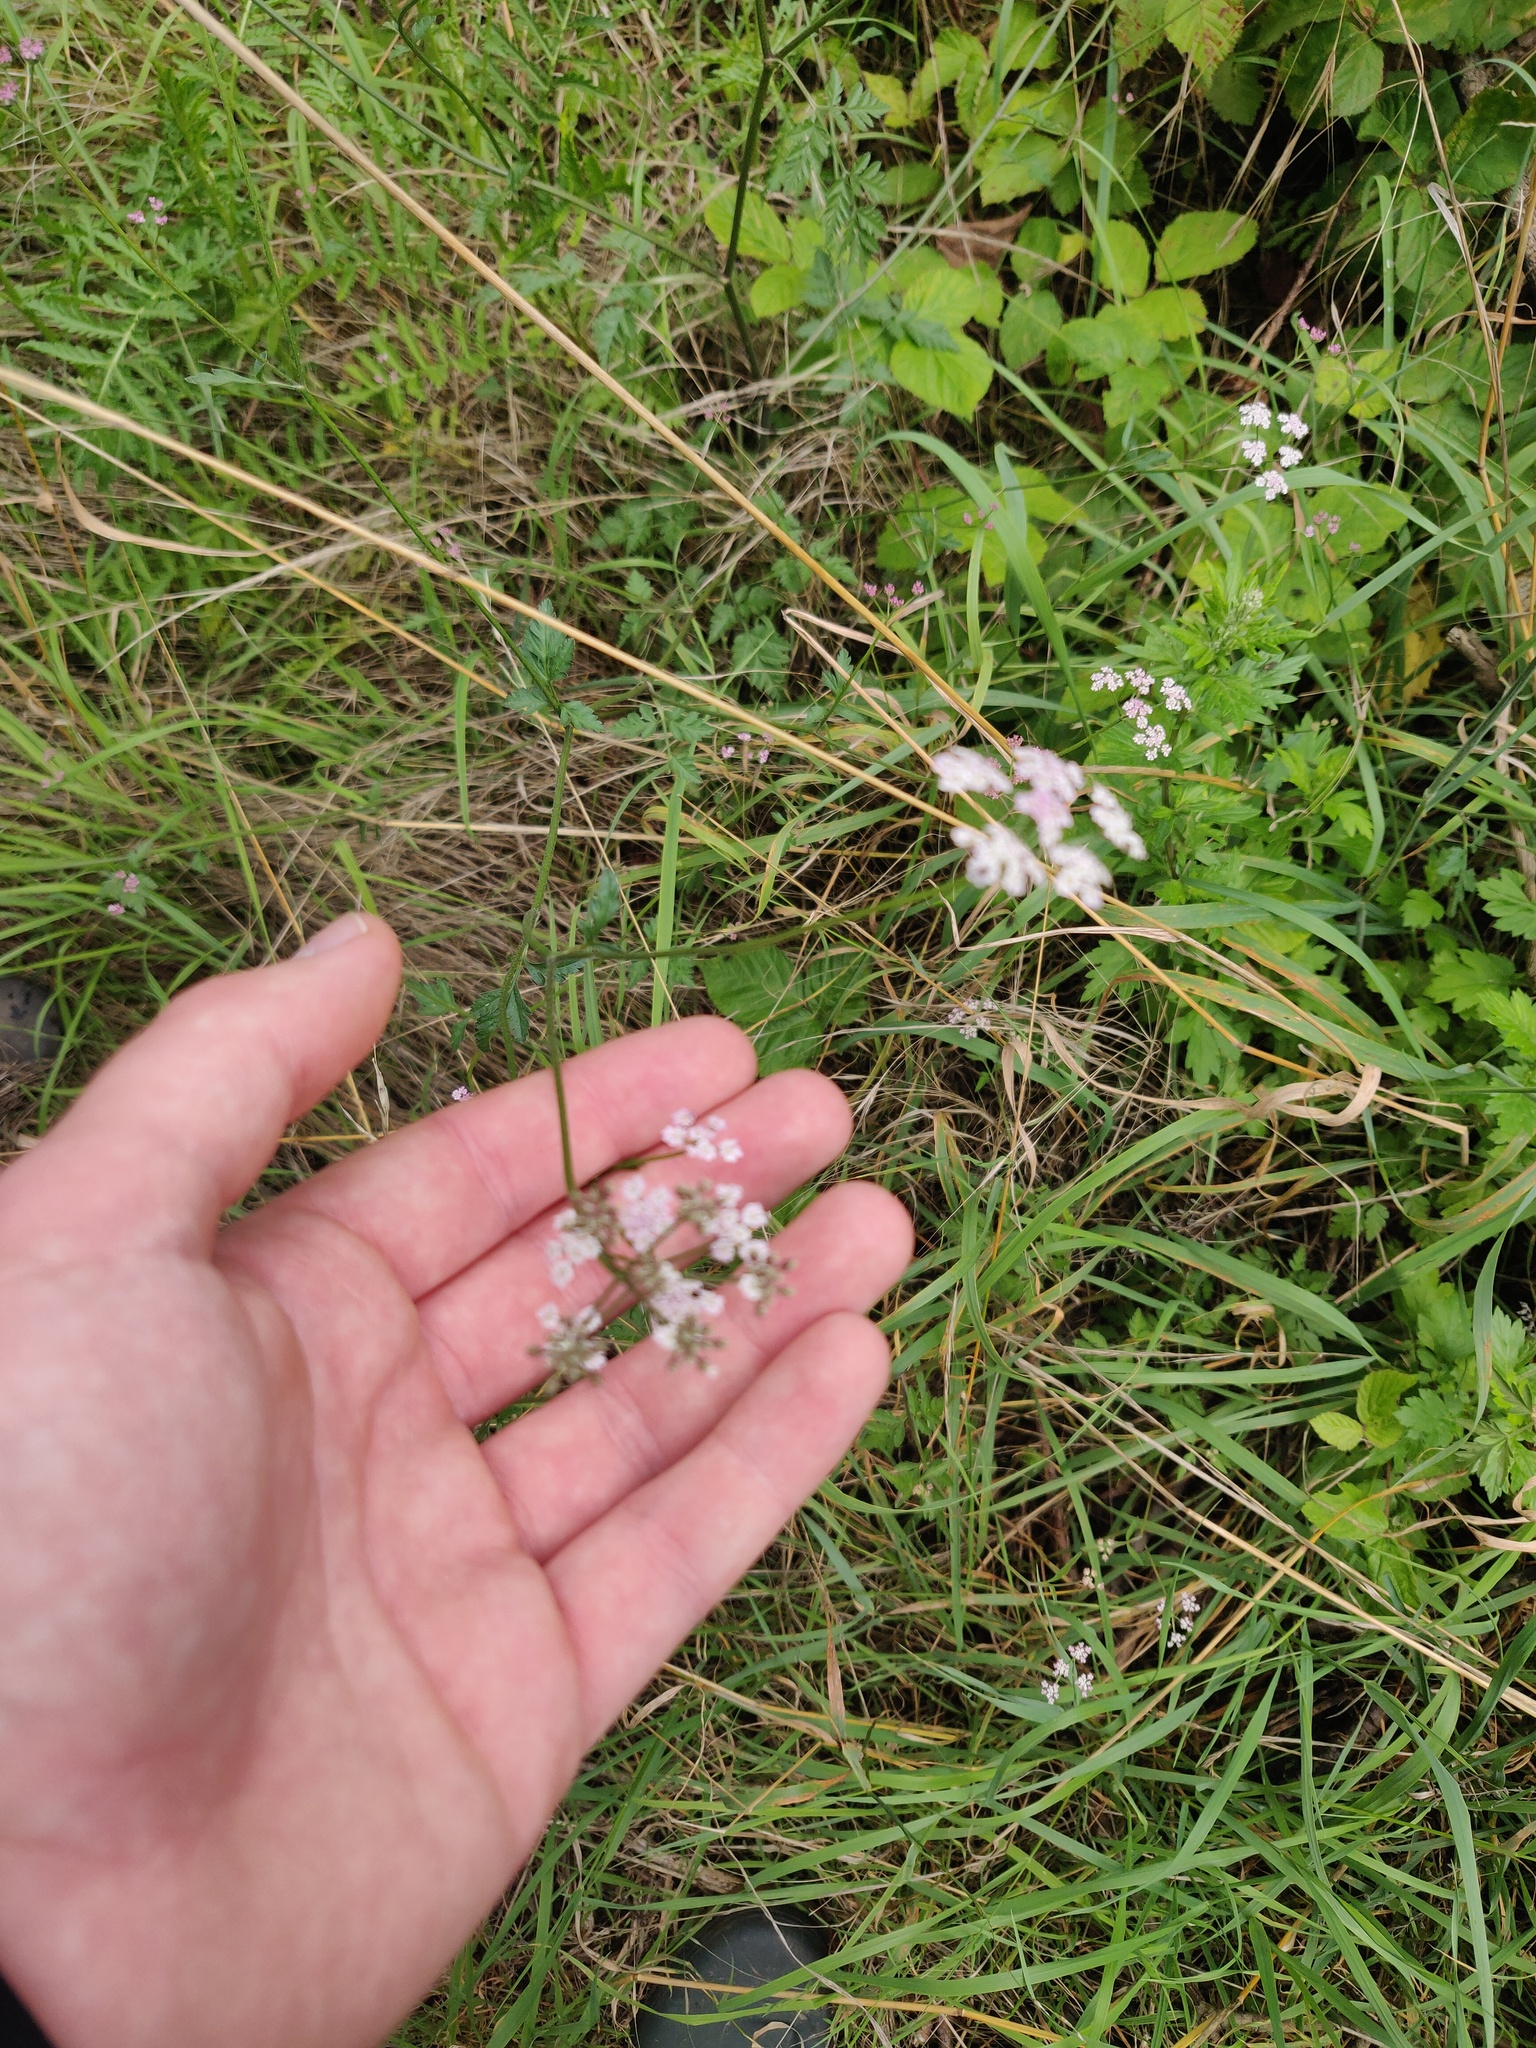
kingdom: Plantae
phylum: Tracheophyta
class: Magnoliopsida
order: Apiales
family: Apiaceae
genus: Torilis
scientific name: Torilis japonica
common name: Upright hedge-parsley
